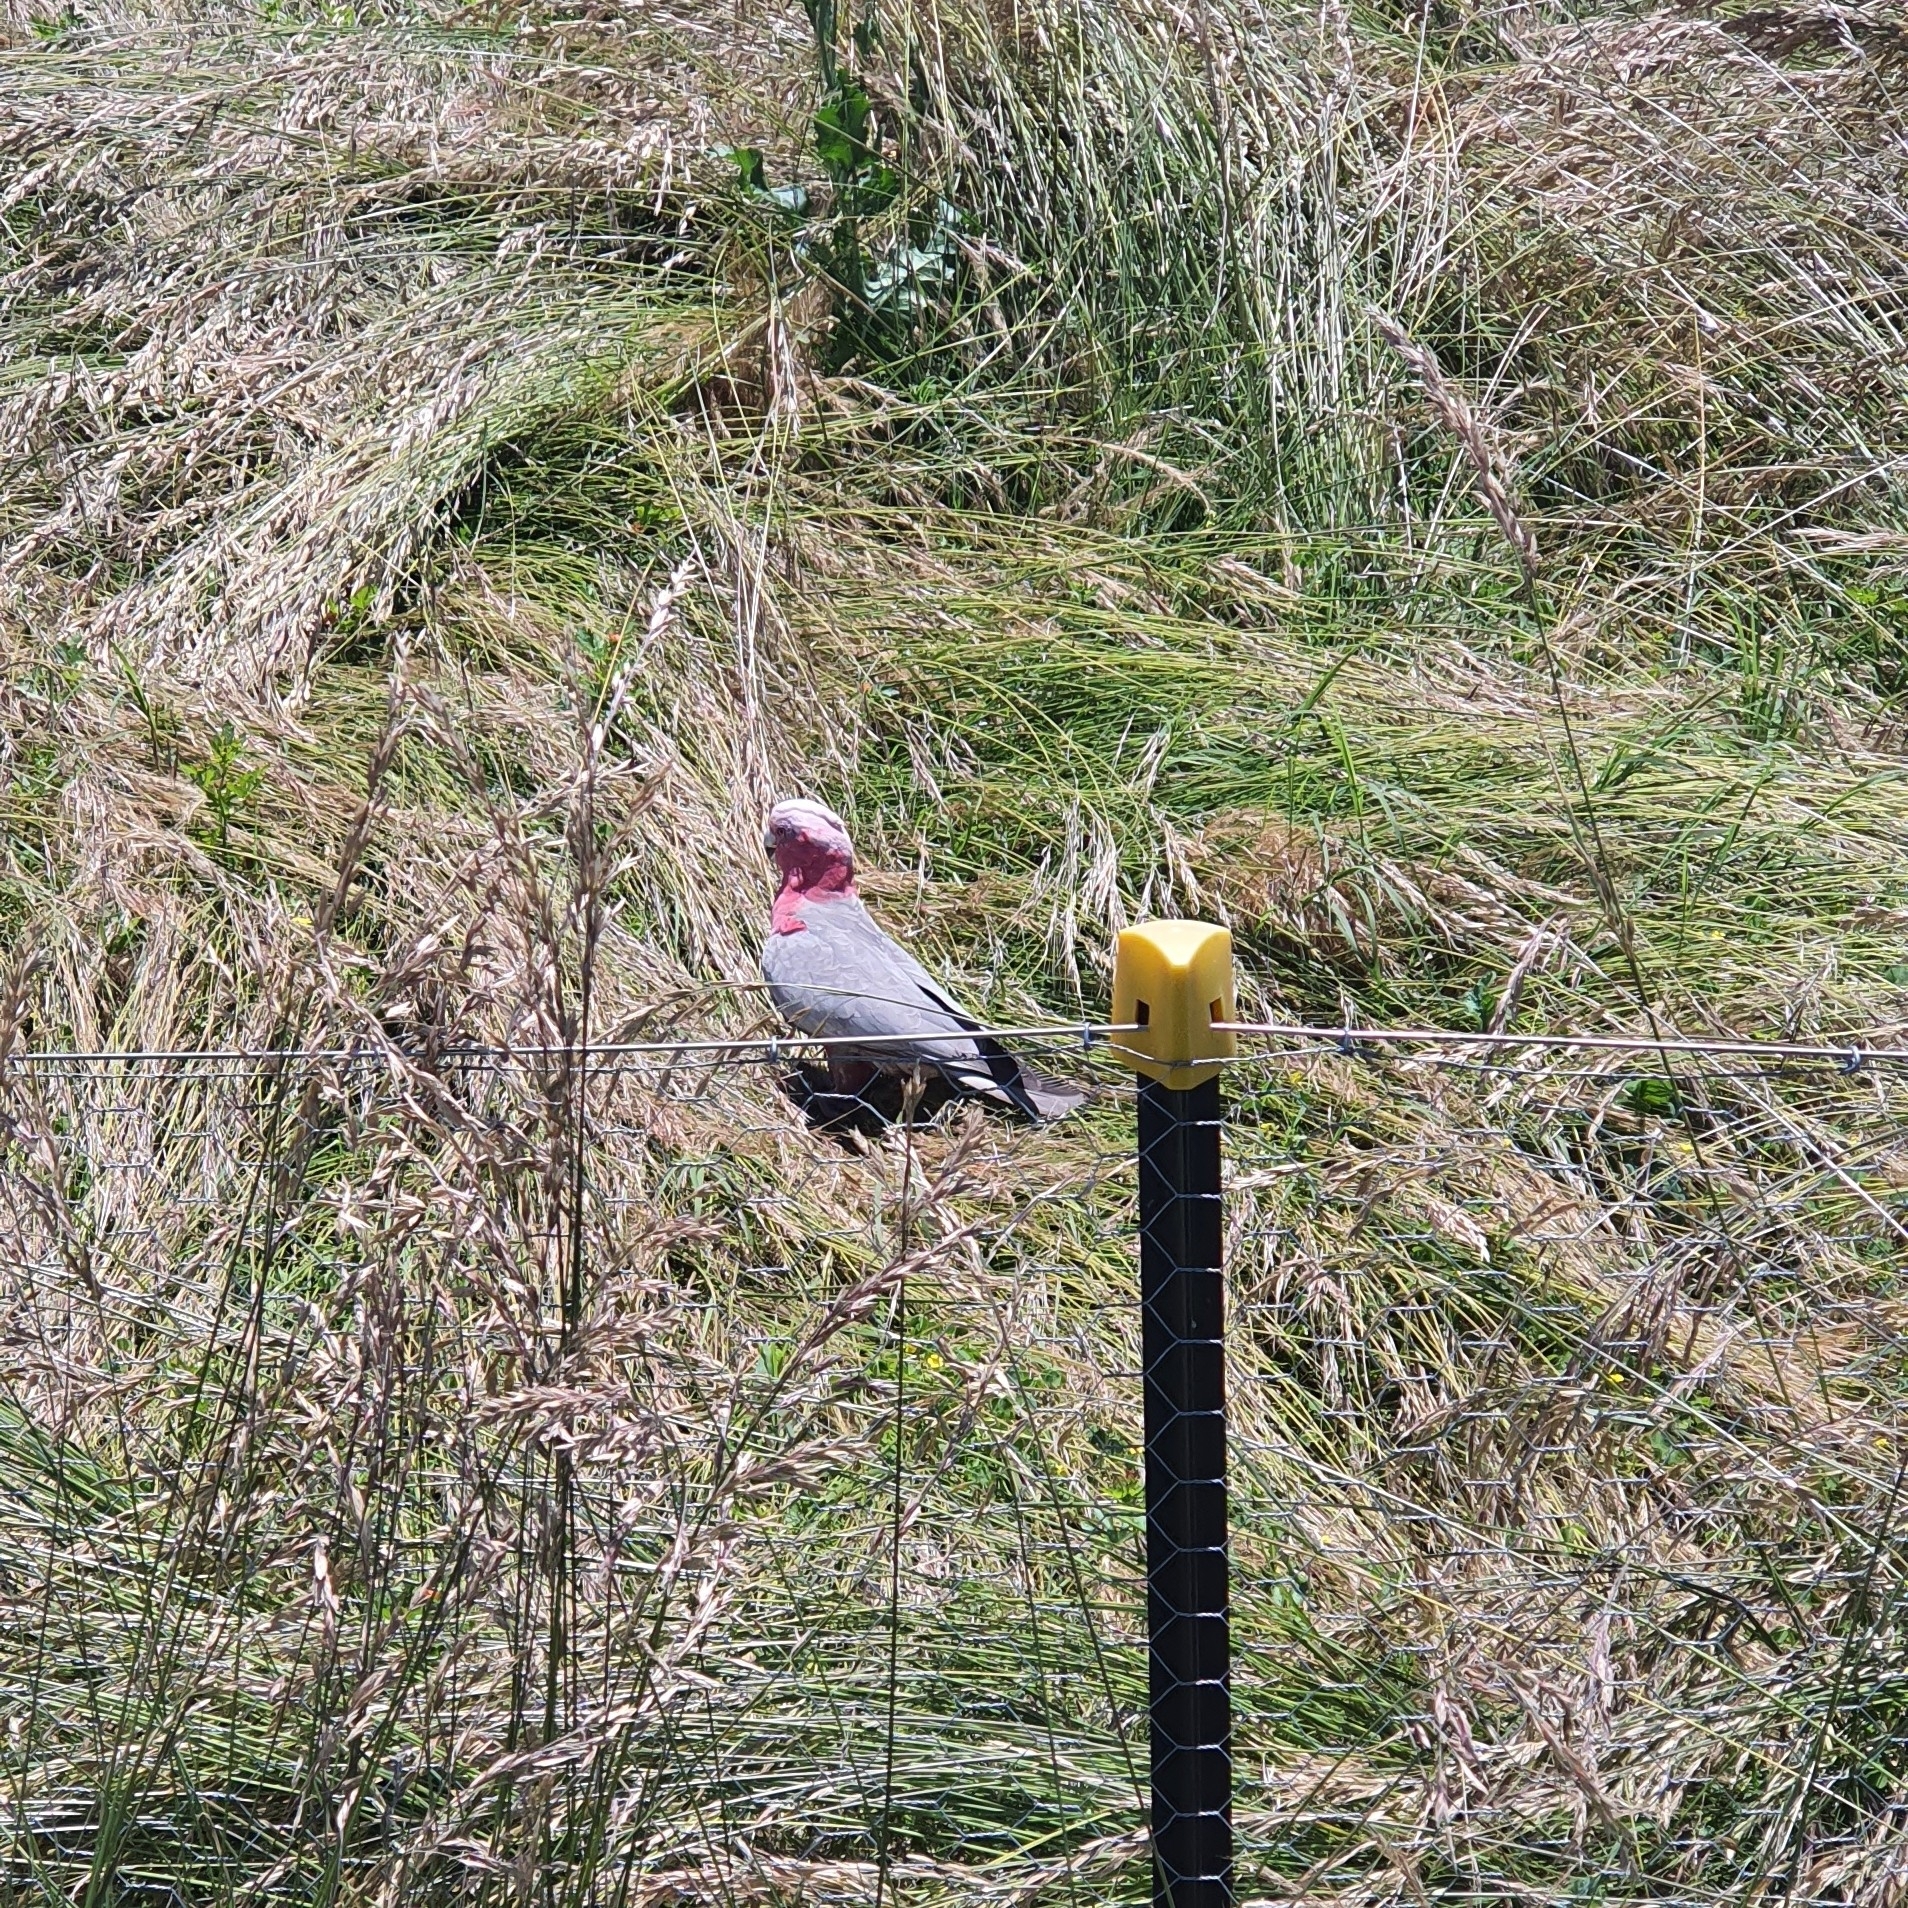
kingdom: Animalia
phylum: Chordata
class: Aves
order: Psittaciformes
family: Psittacidae
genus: Eolophus
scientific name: Eolophus roseicapilla
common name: Galah
